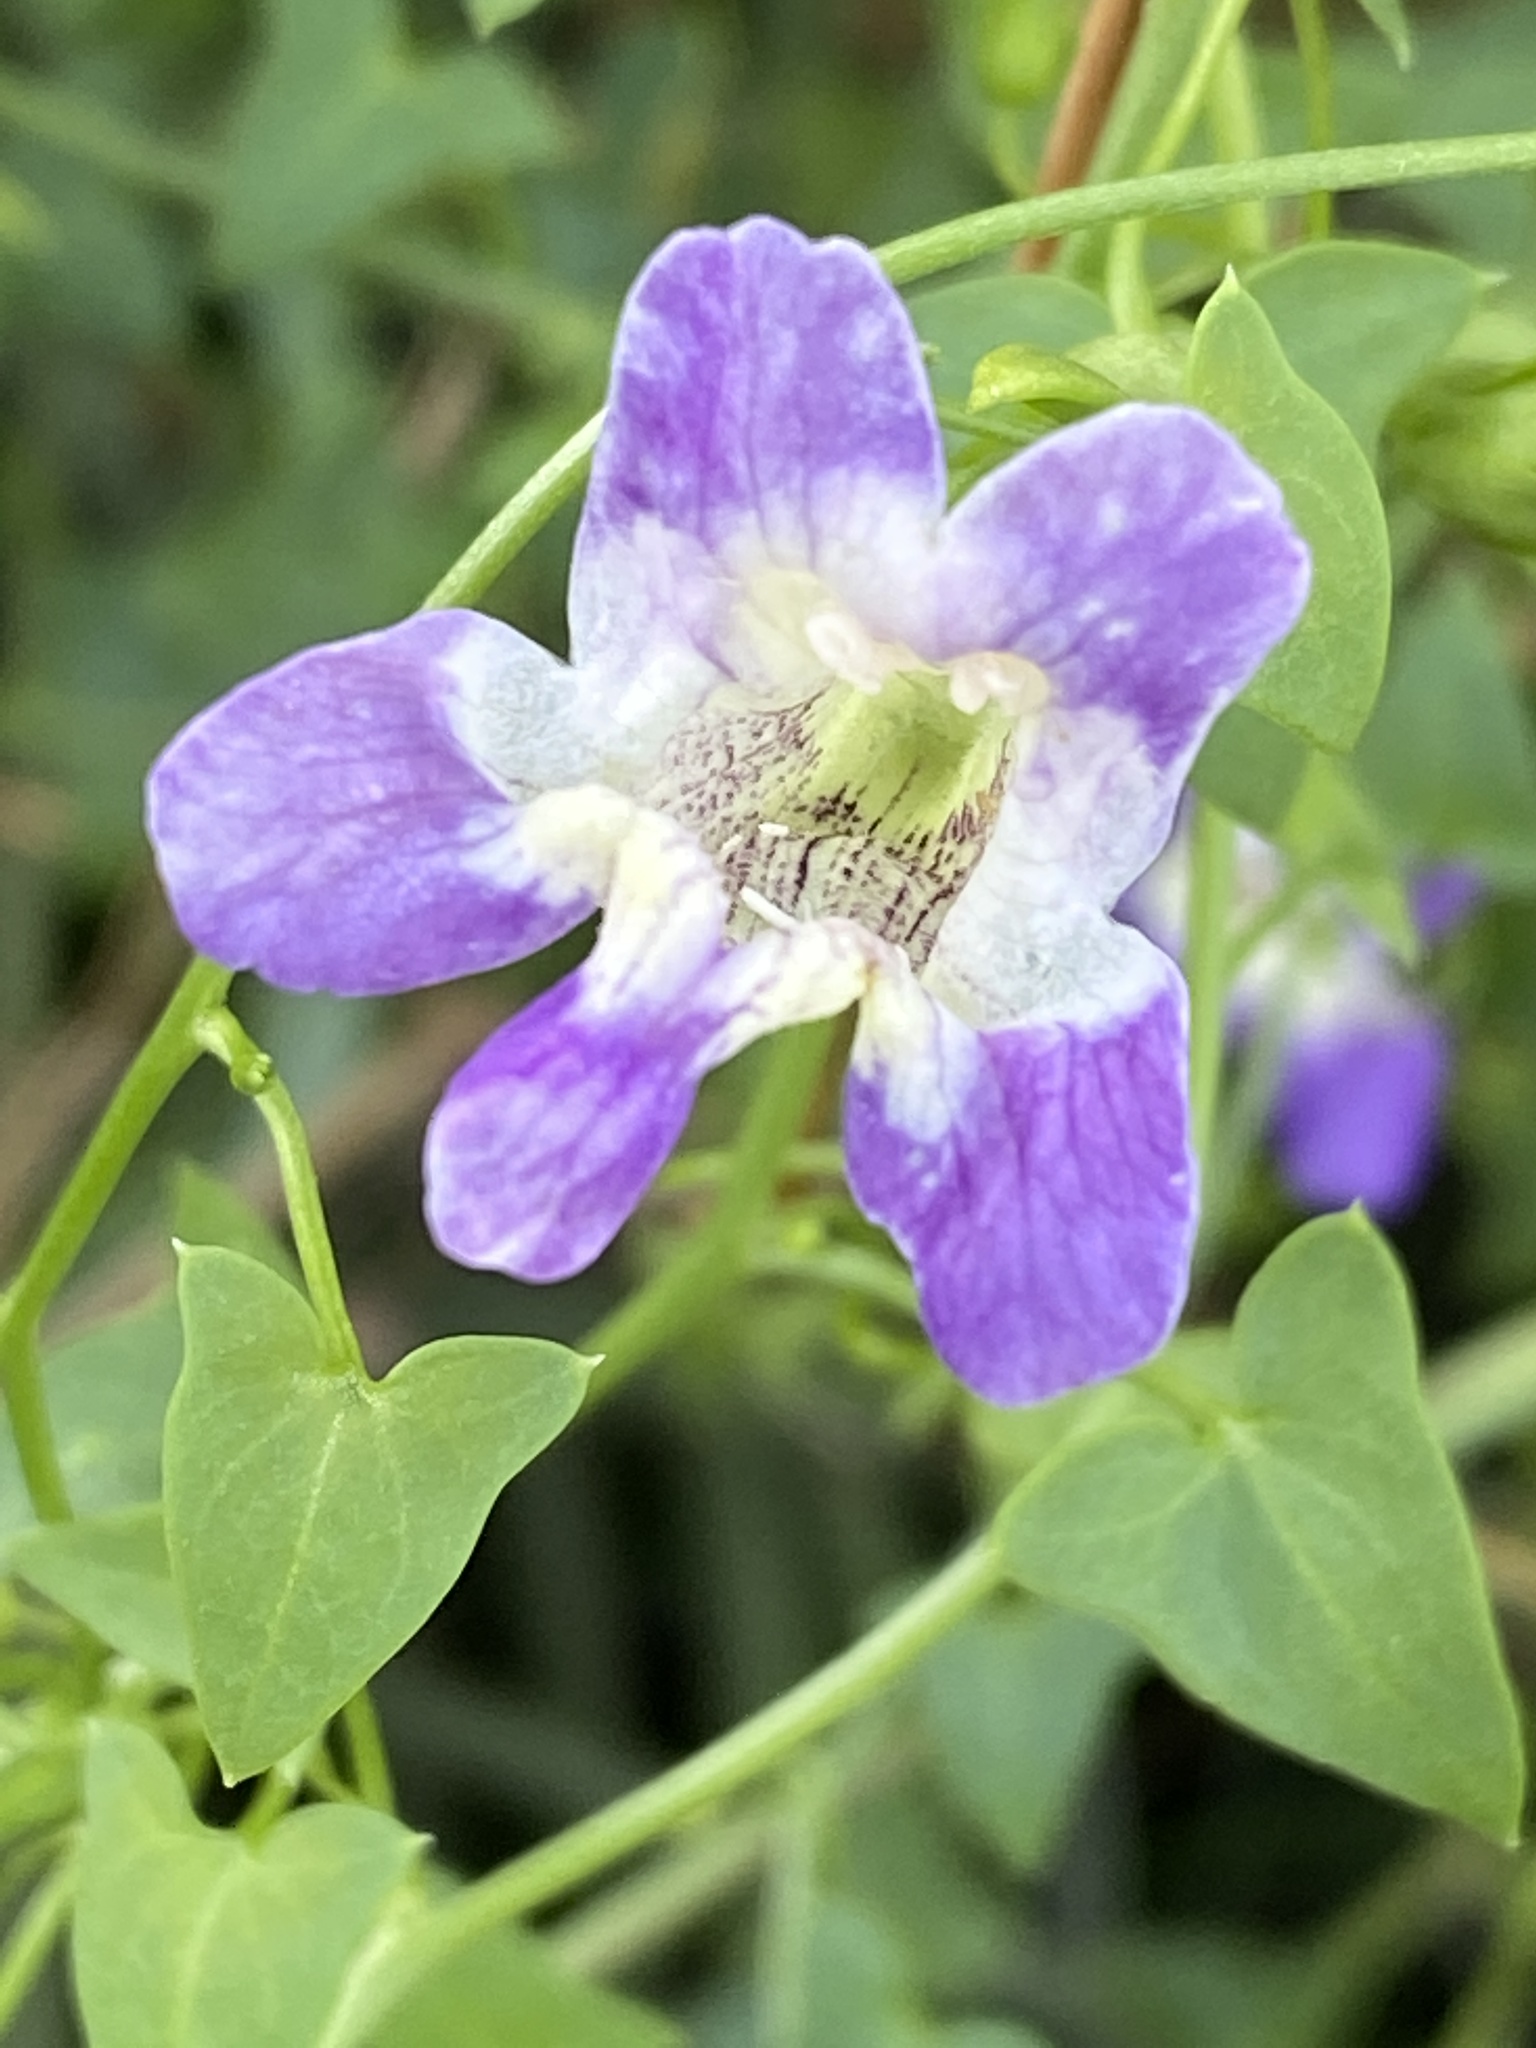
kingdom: Plantae
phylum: Tracheophyta
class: Magnoliopsida
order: Lamiales
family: Plantaginaceae
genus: Maurandella
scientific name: Maurandella antirrhiniflora
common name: Violet twining-snapdragon
